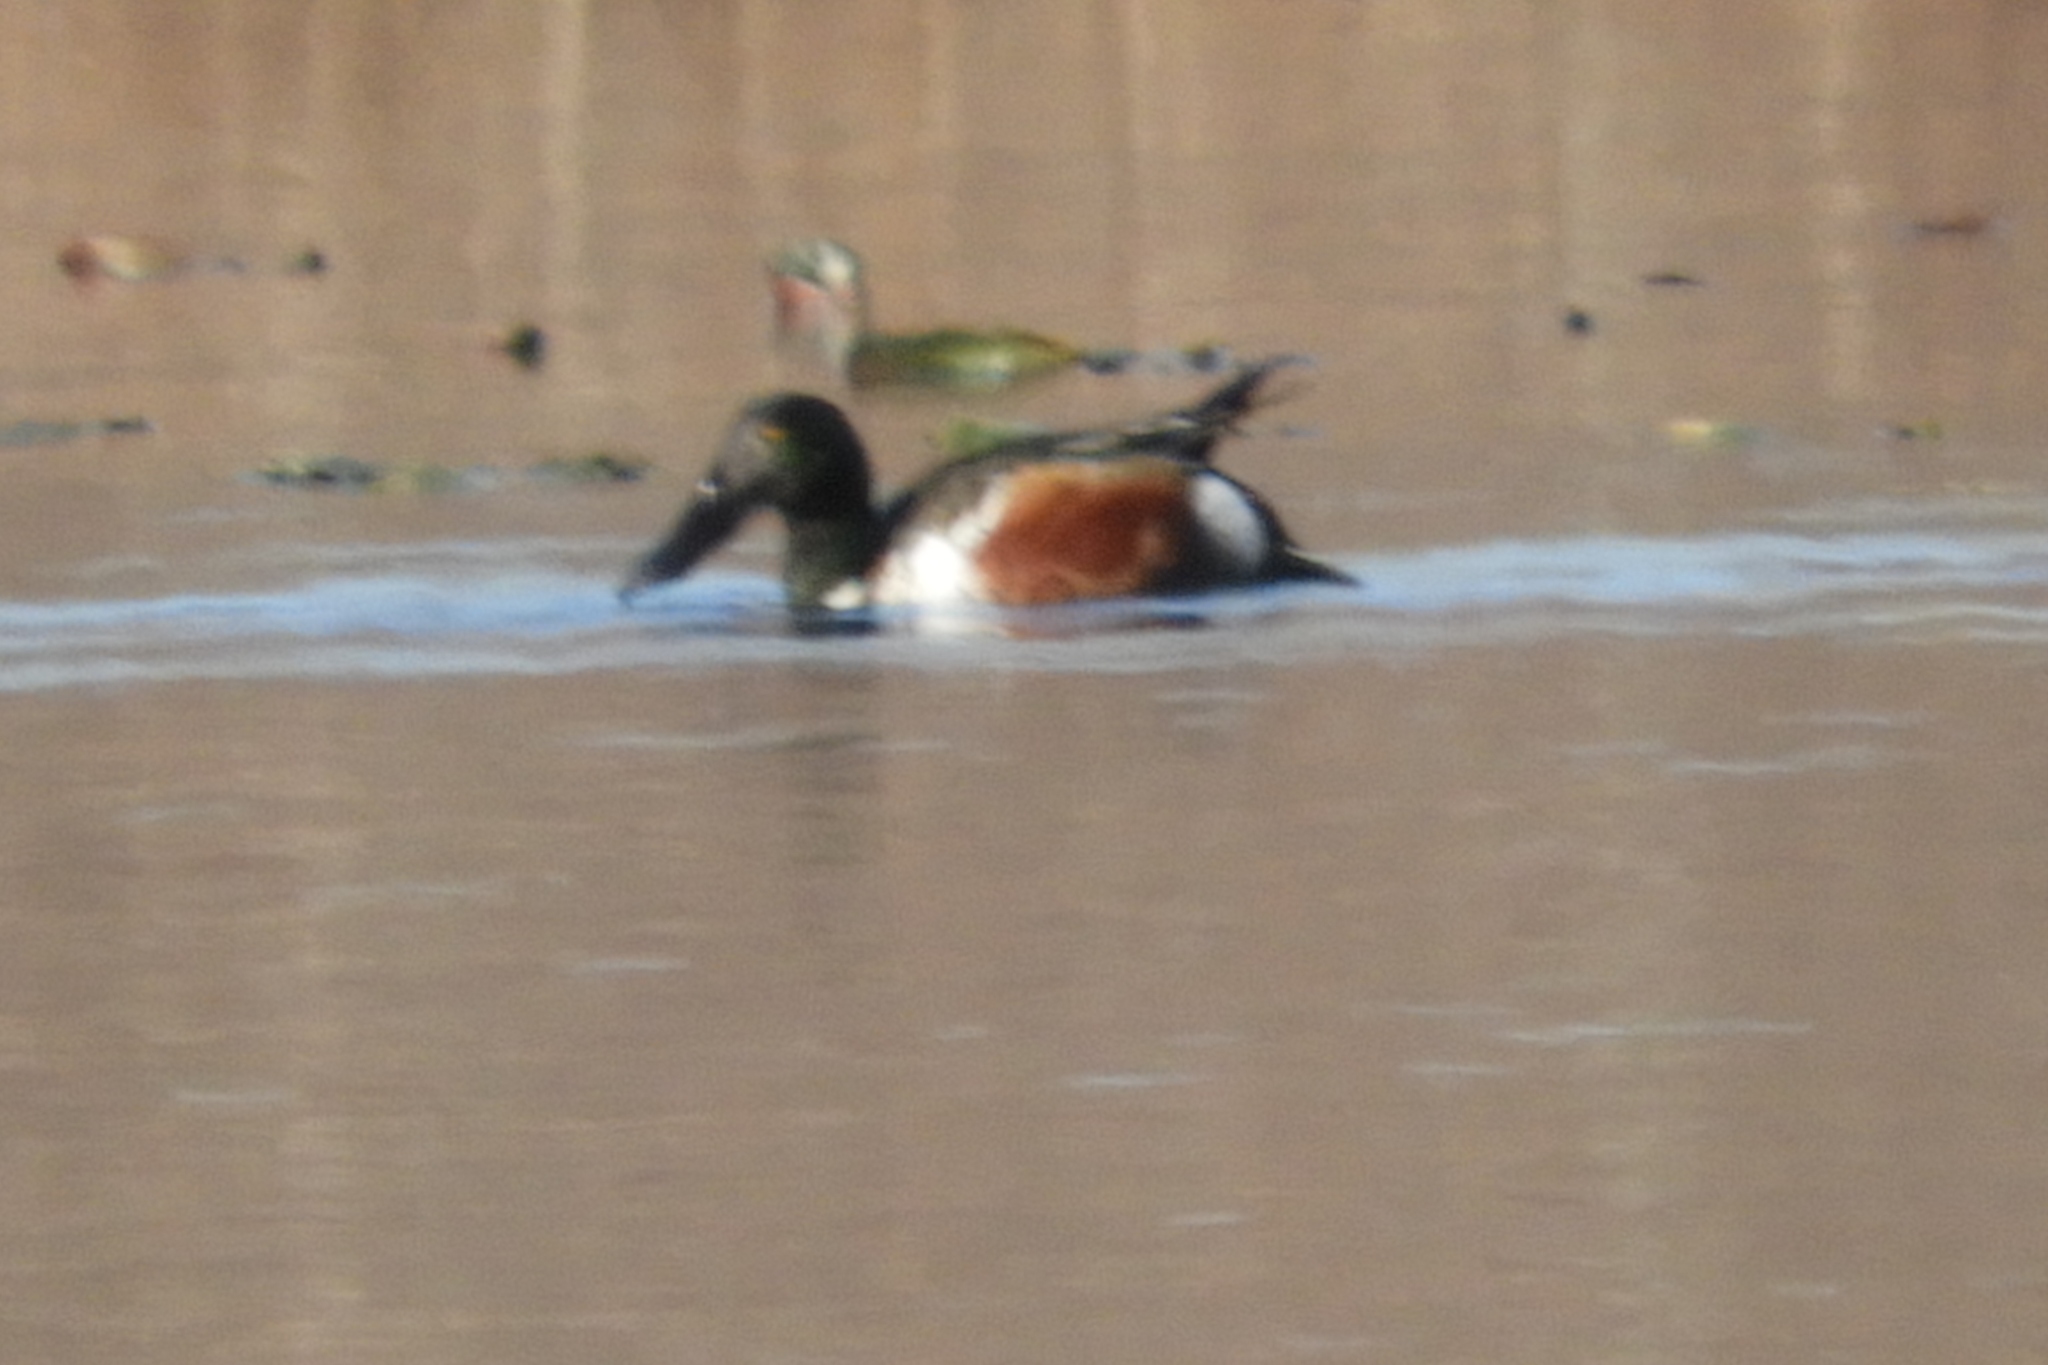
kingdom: Animalia
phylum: Chordata
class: Aves
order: Anseriformes
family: Anatidae
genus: Spatula
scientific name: Spatula clypeata
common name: Northern shoveler
